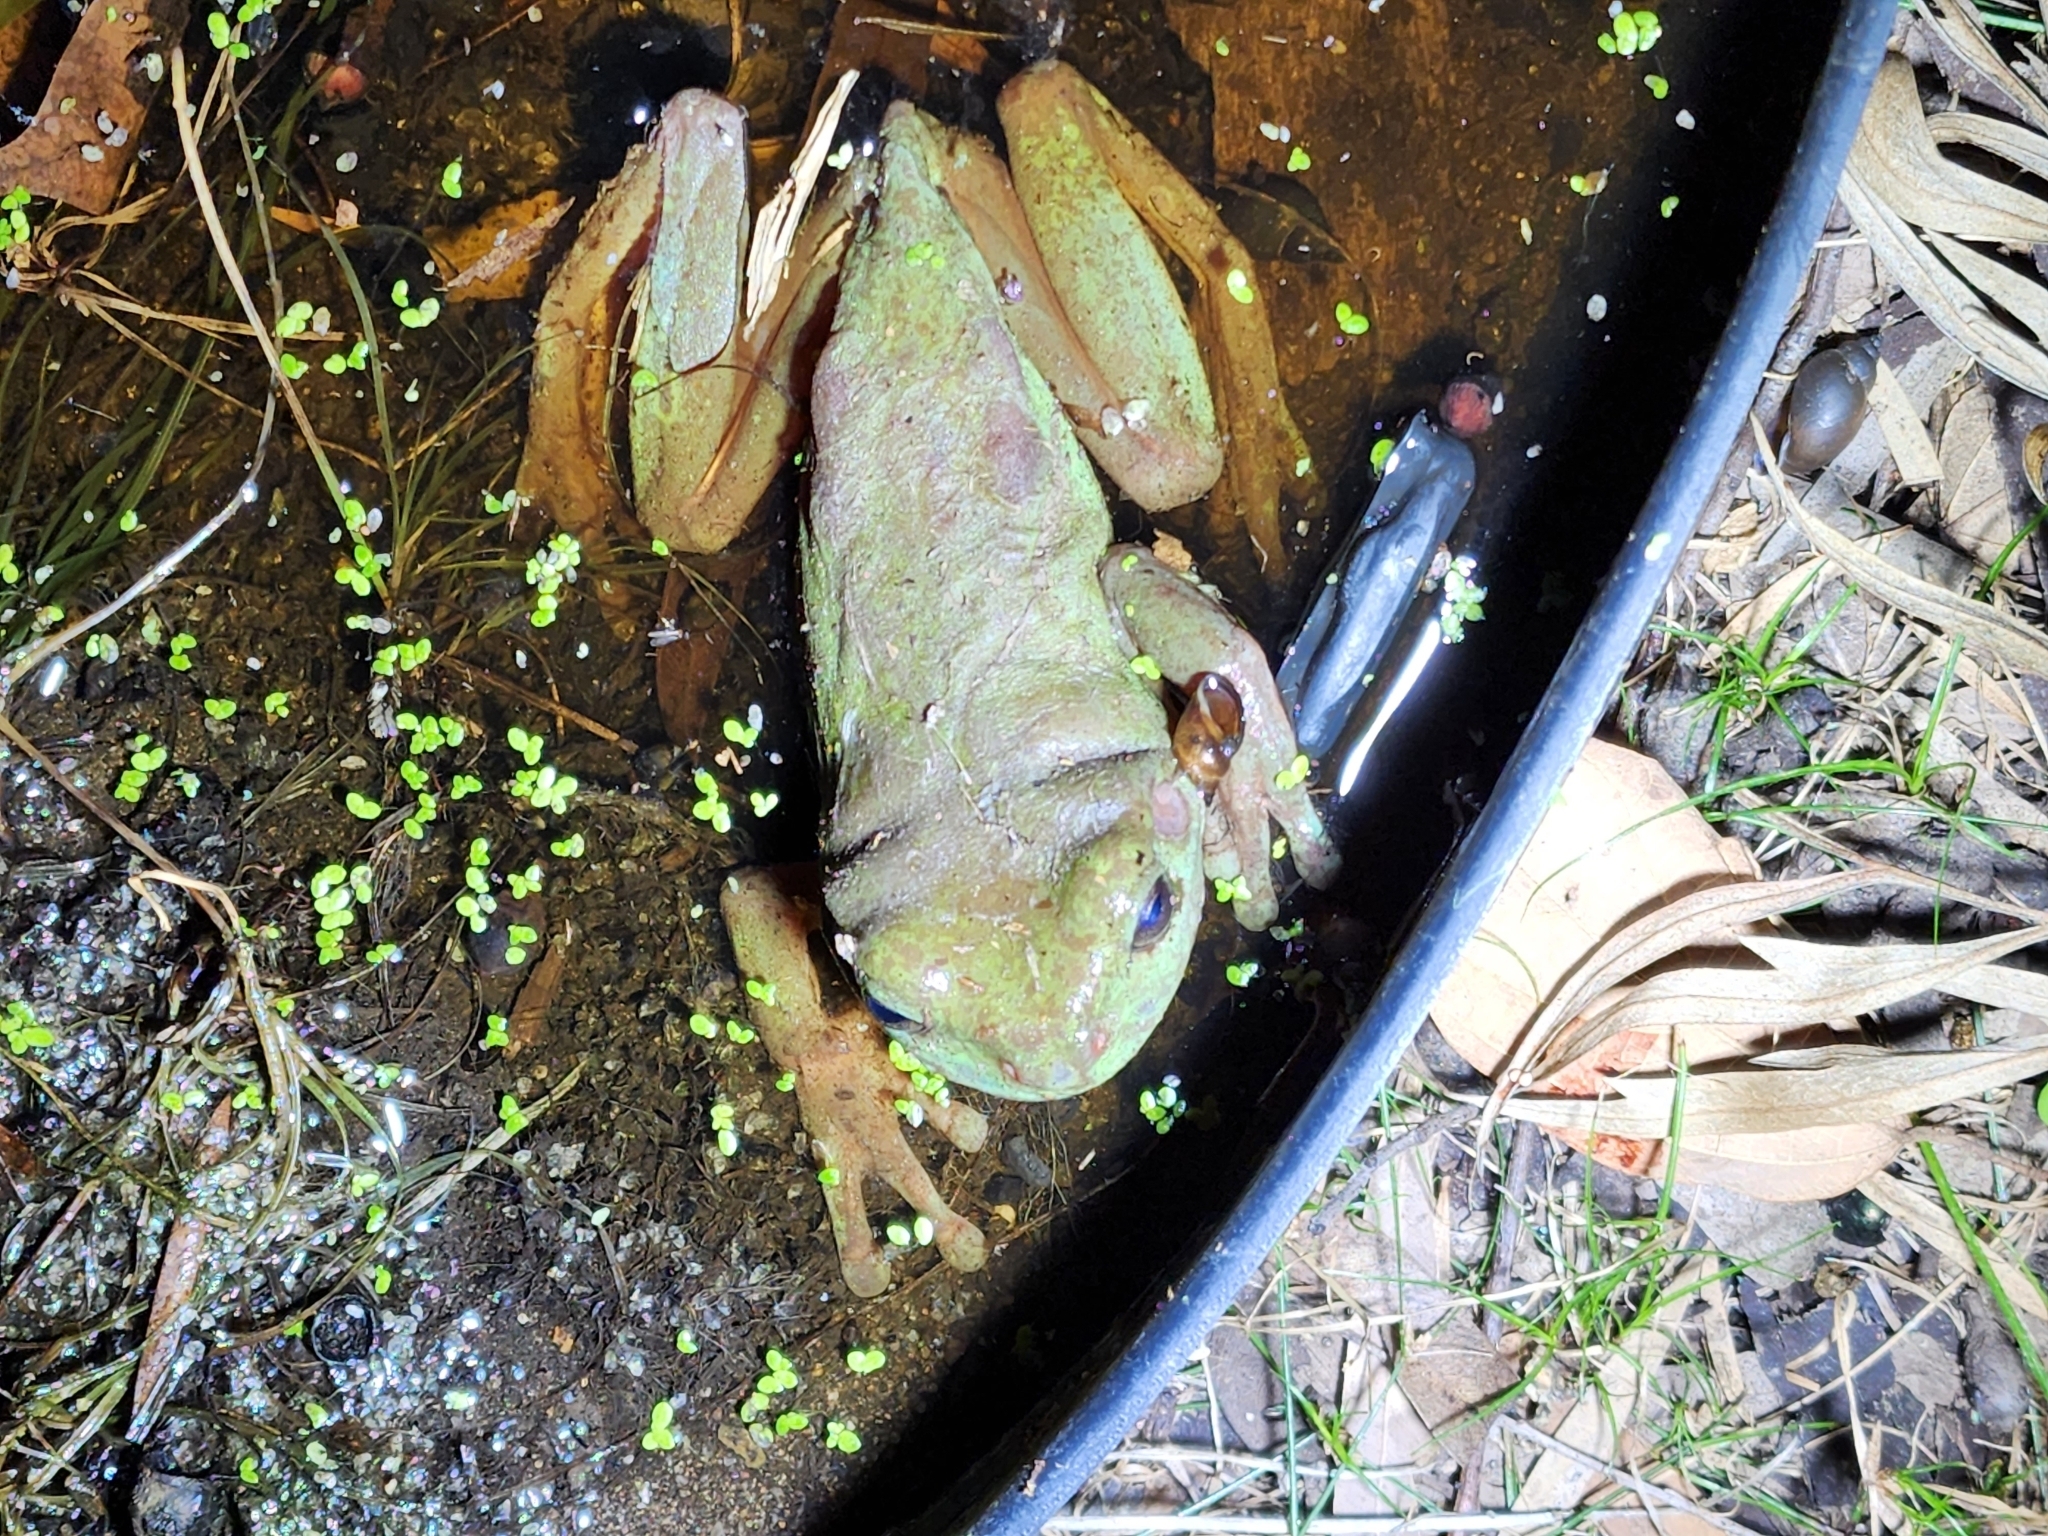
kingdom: Animalia
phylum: Chordata
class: Amphibia
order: Anura
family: Pelodryadidae
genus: Ranoidea
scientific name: Ranoidea caerulea
